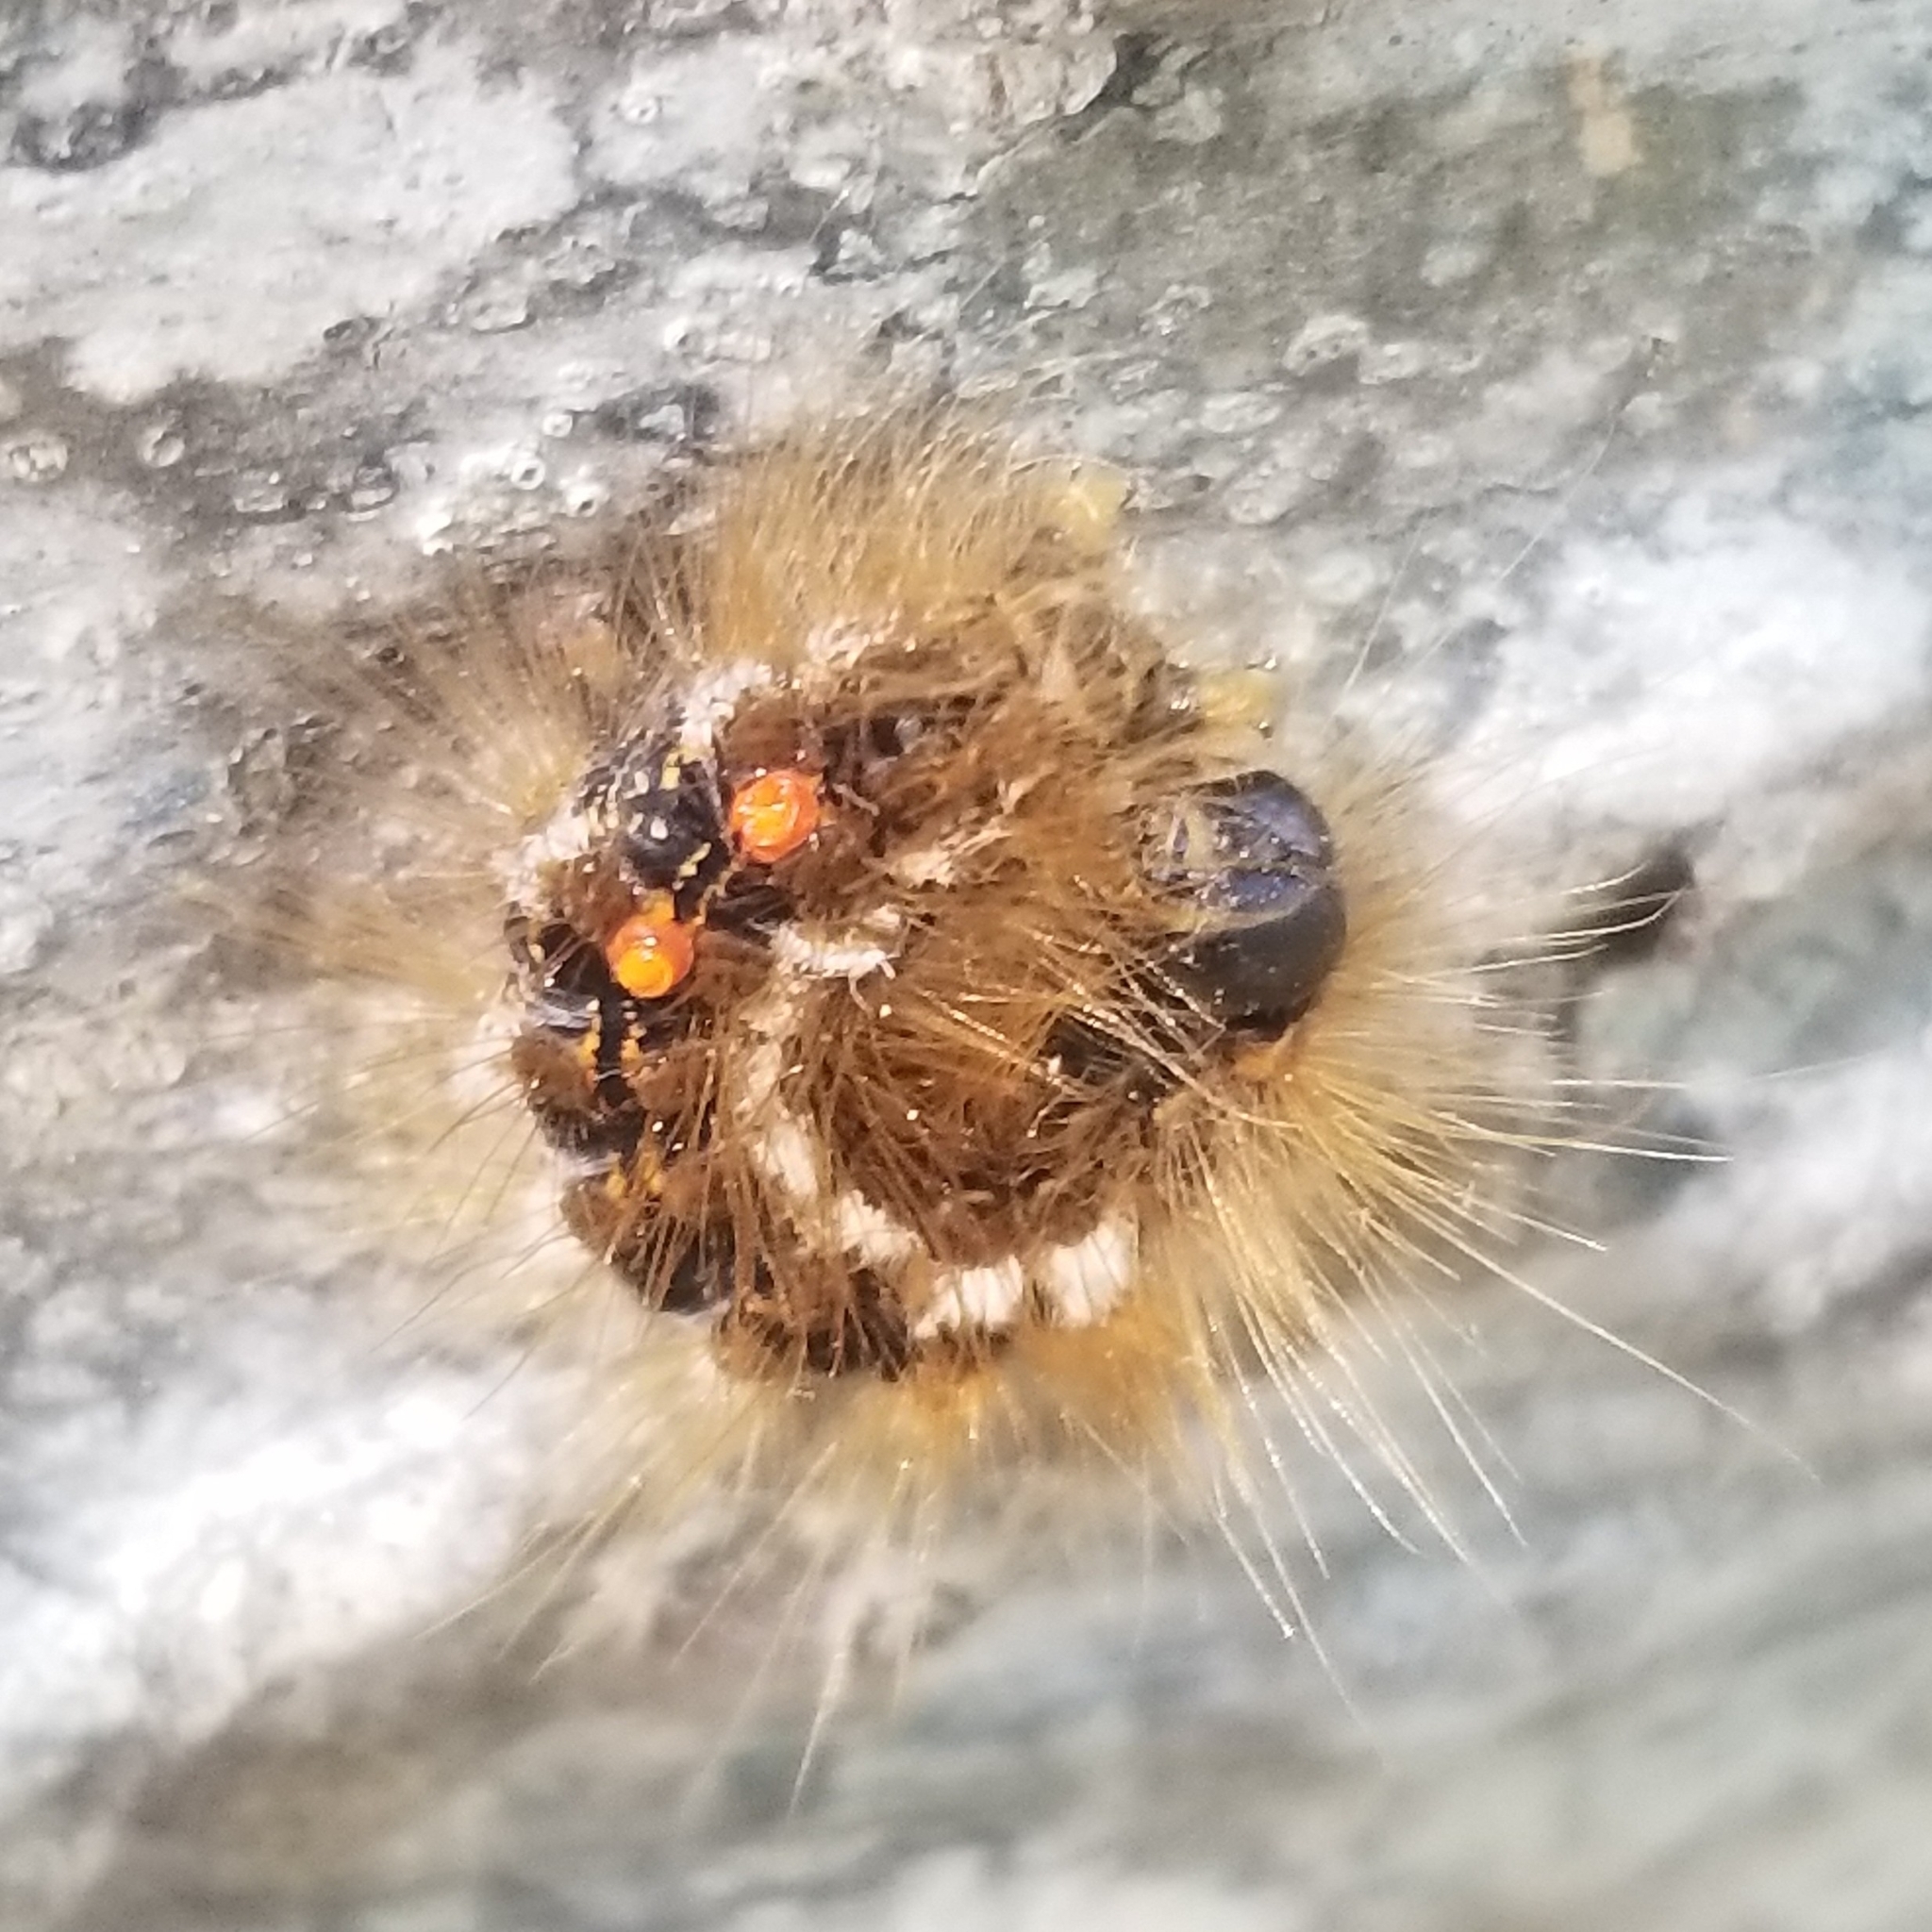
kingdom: Animalia
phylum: Arthropoda
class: Insecta
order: Lepidoptera
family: Erebidae
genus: Euproctis
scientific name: Euproctis chrysorrhoea
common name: Brown-tail
